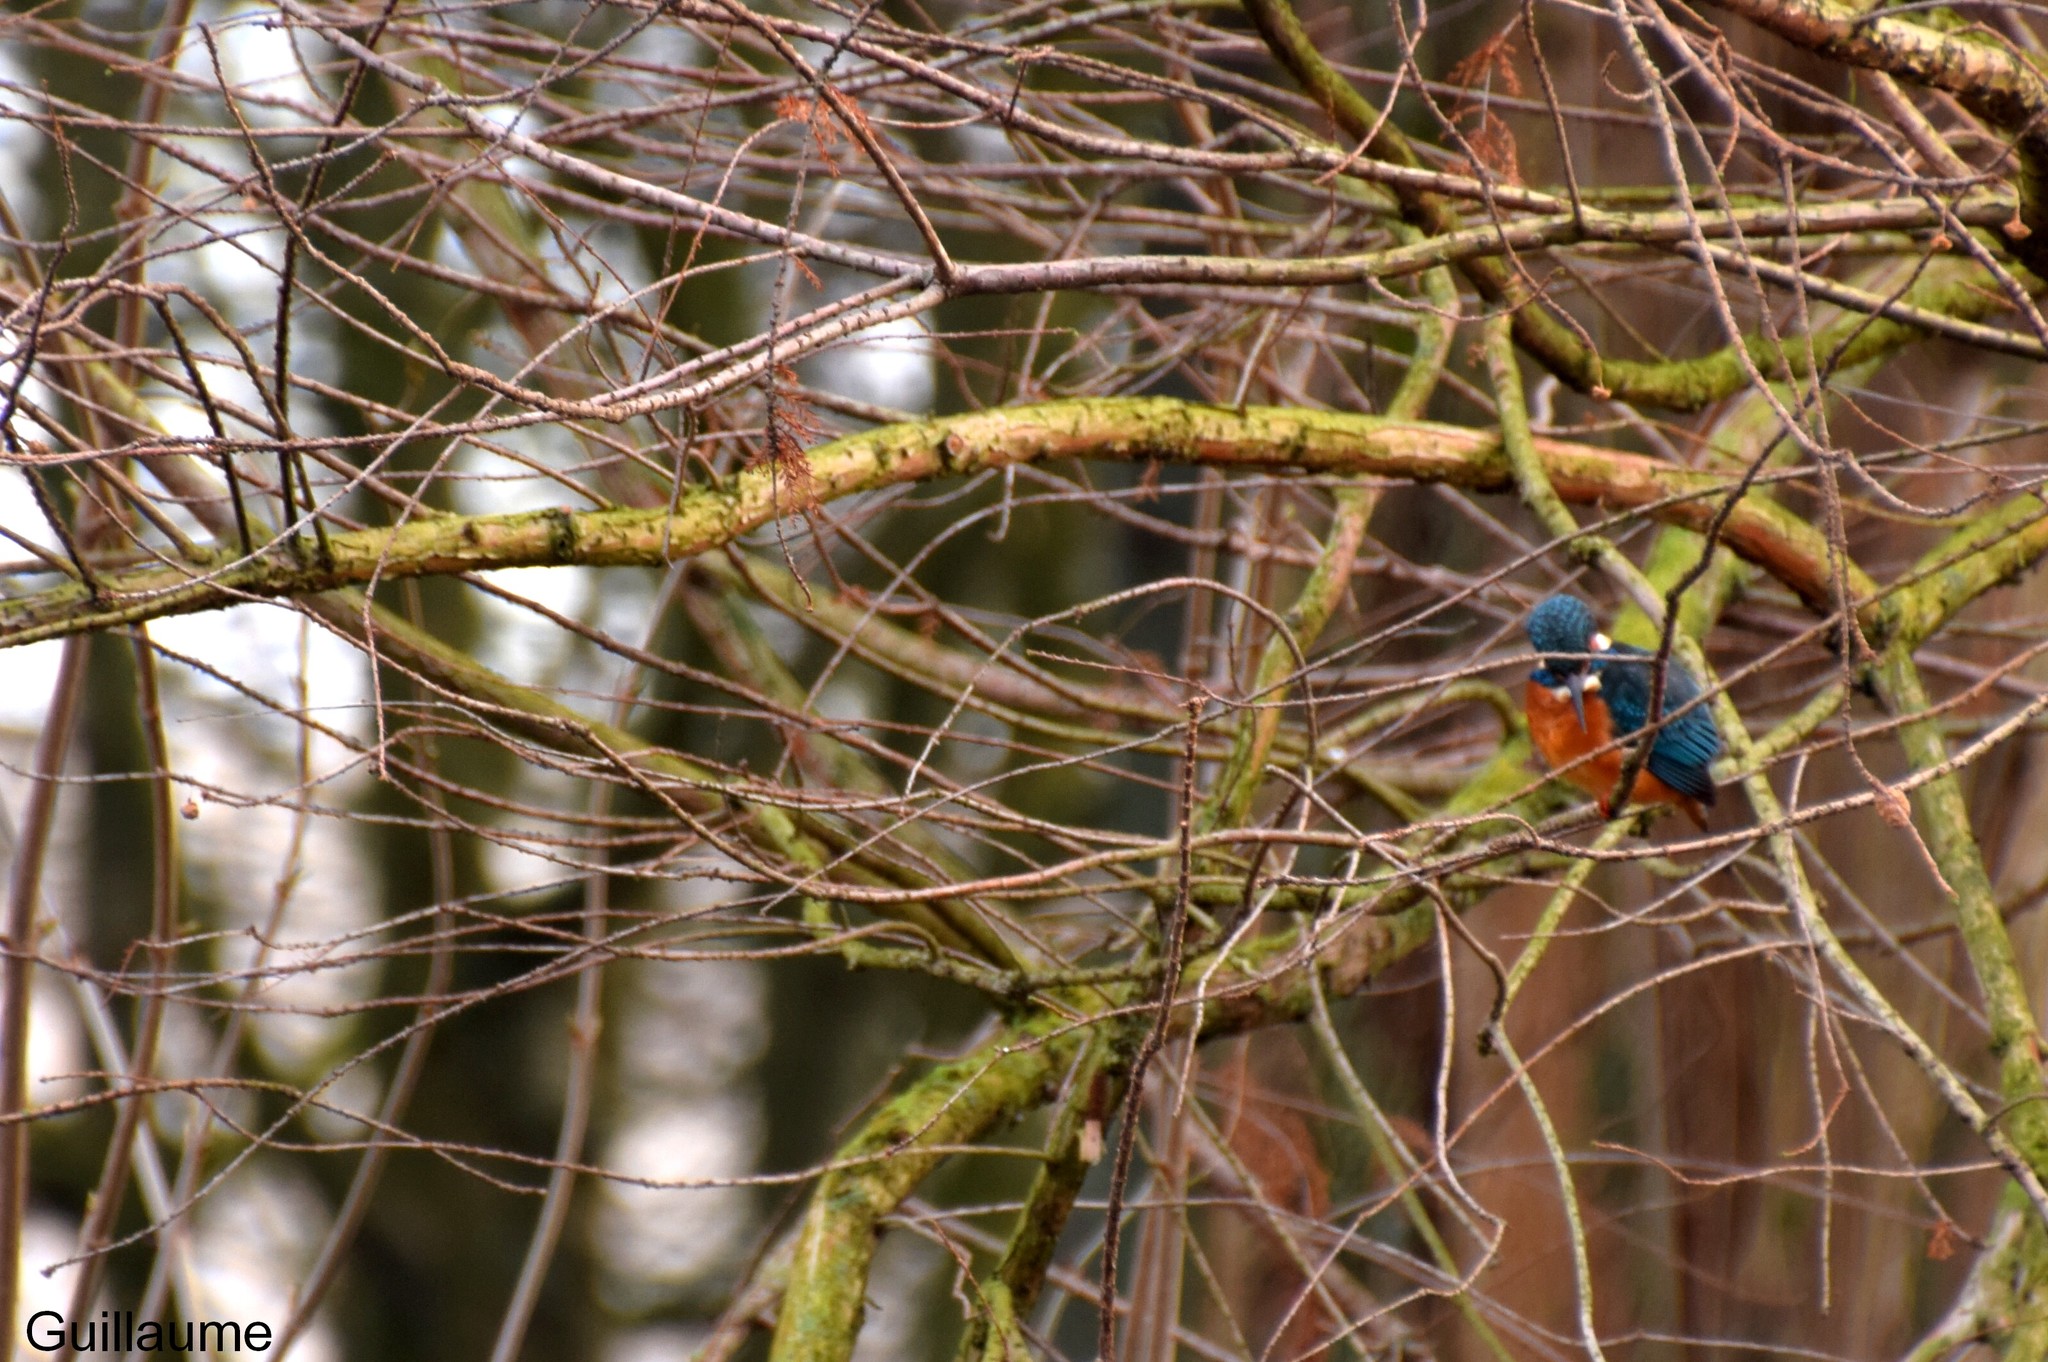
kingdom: Animalia
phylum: Chordata
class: Aves
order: Coraciiformes
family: Alcedinidae
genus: Alcedo
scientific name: Alcedo atthis
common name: Common kingfisher
